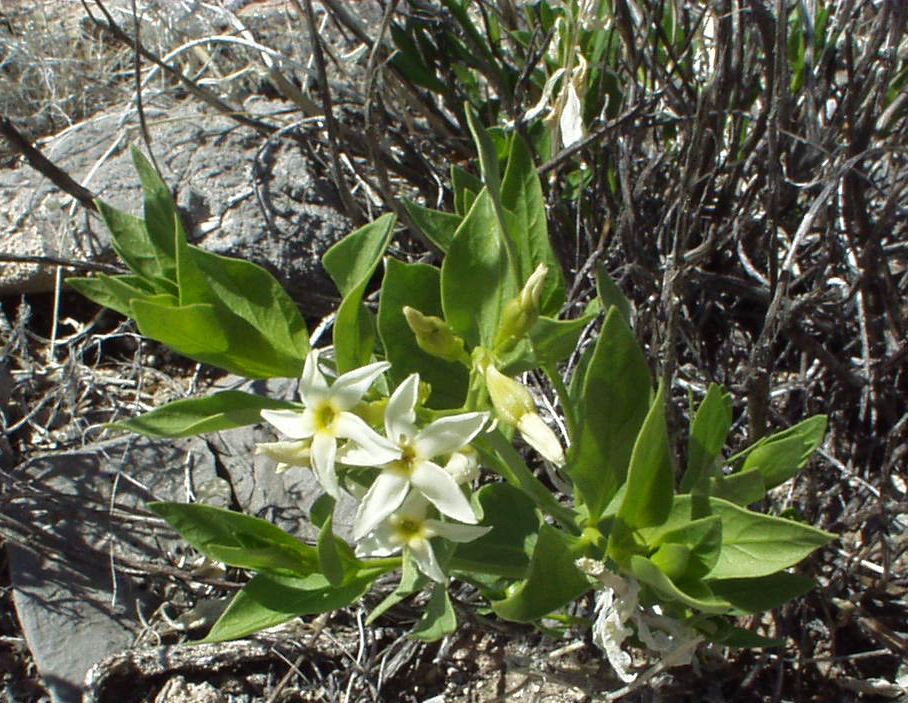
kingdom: Plantae
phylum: Tracheophyta
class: Magnoliopsida
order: Gentianales
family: Apocynaceae
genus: Amsonia
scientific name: Amsonia tomentosa
